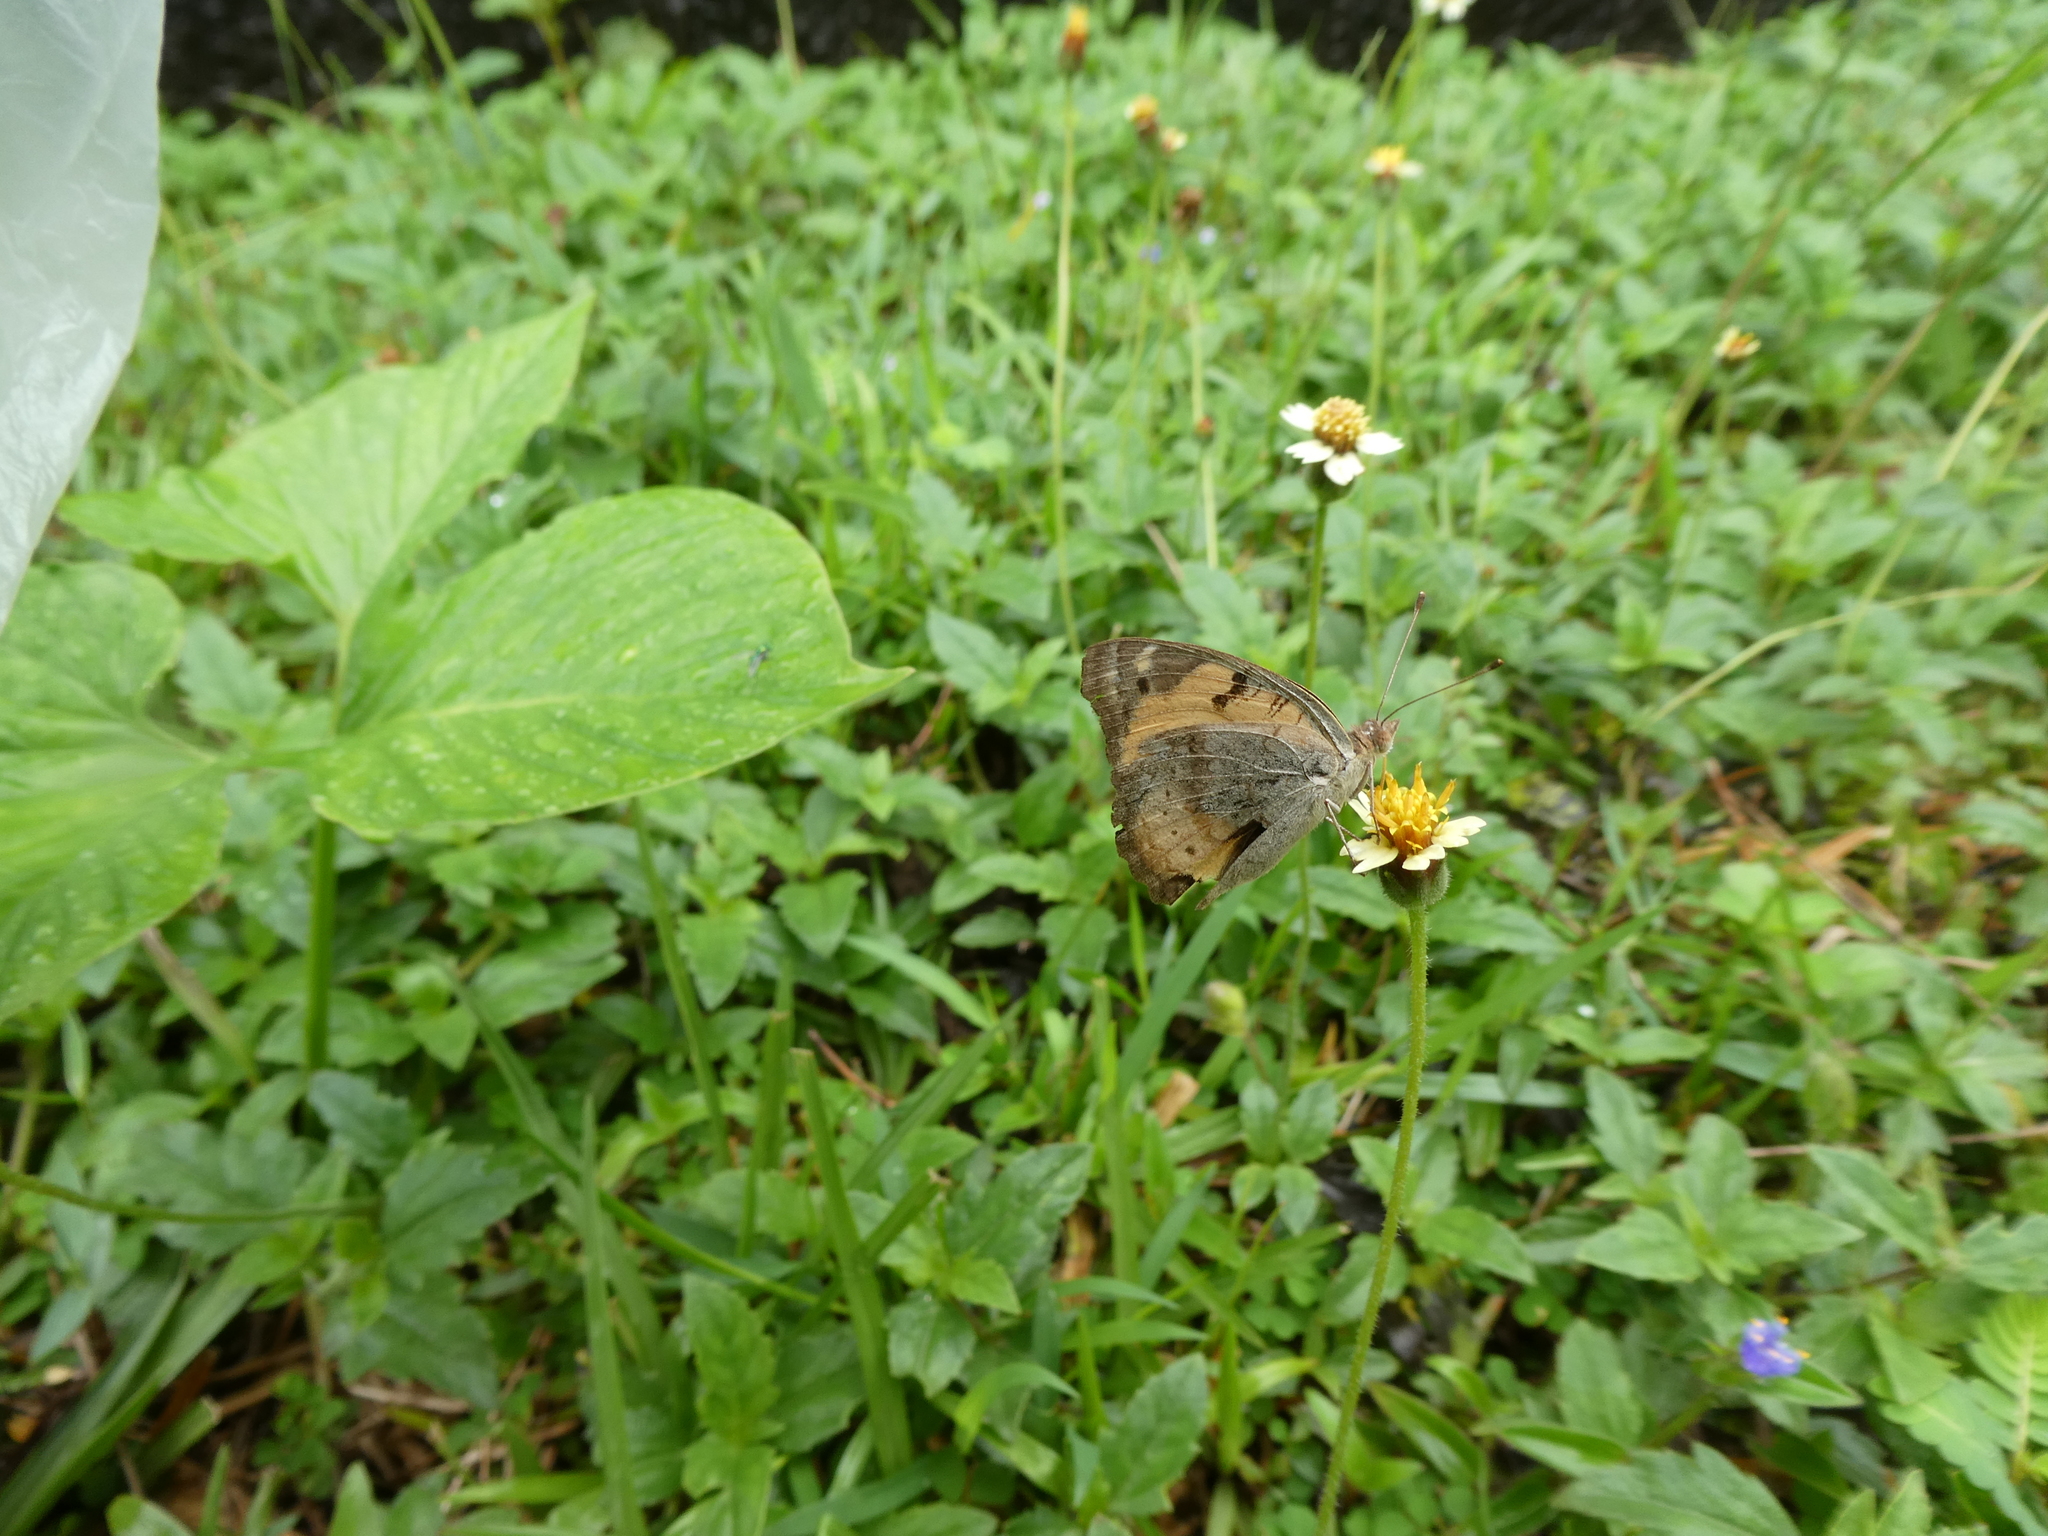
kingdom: Animalia
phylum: Arthropoda
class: Insecta
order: Lepidoptera
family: Nymphalidae
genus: Junonia
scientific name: Junonia hierta
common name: Yellow pansy
